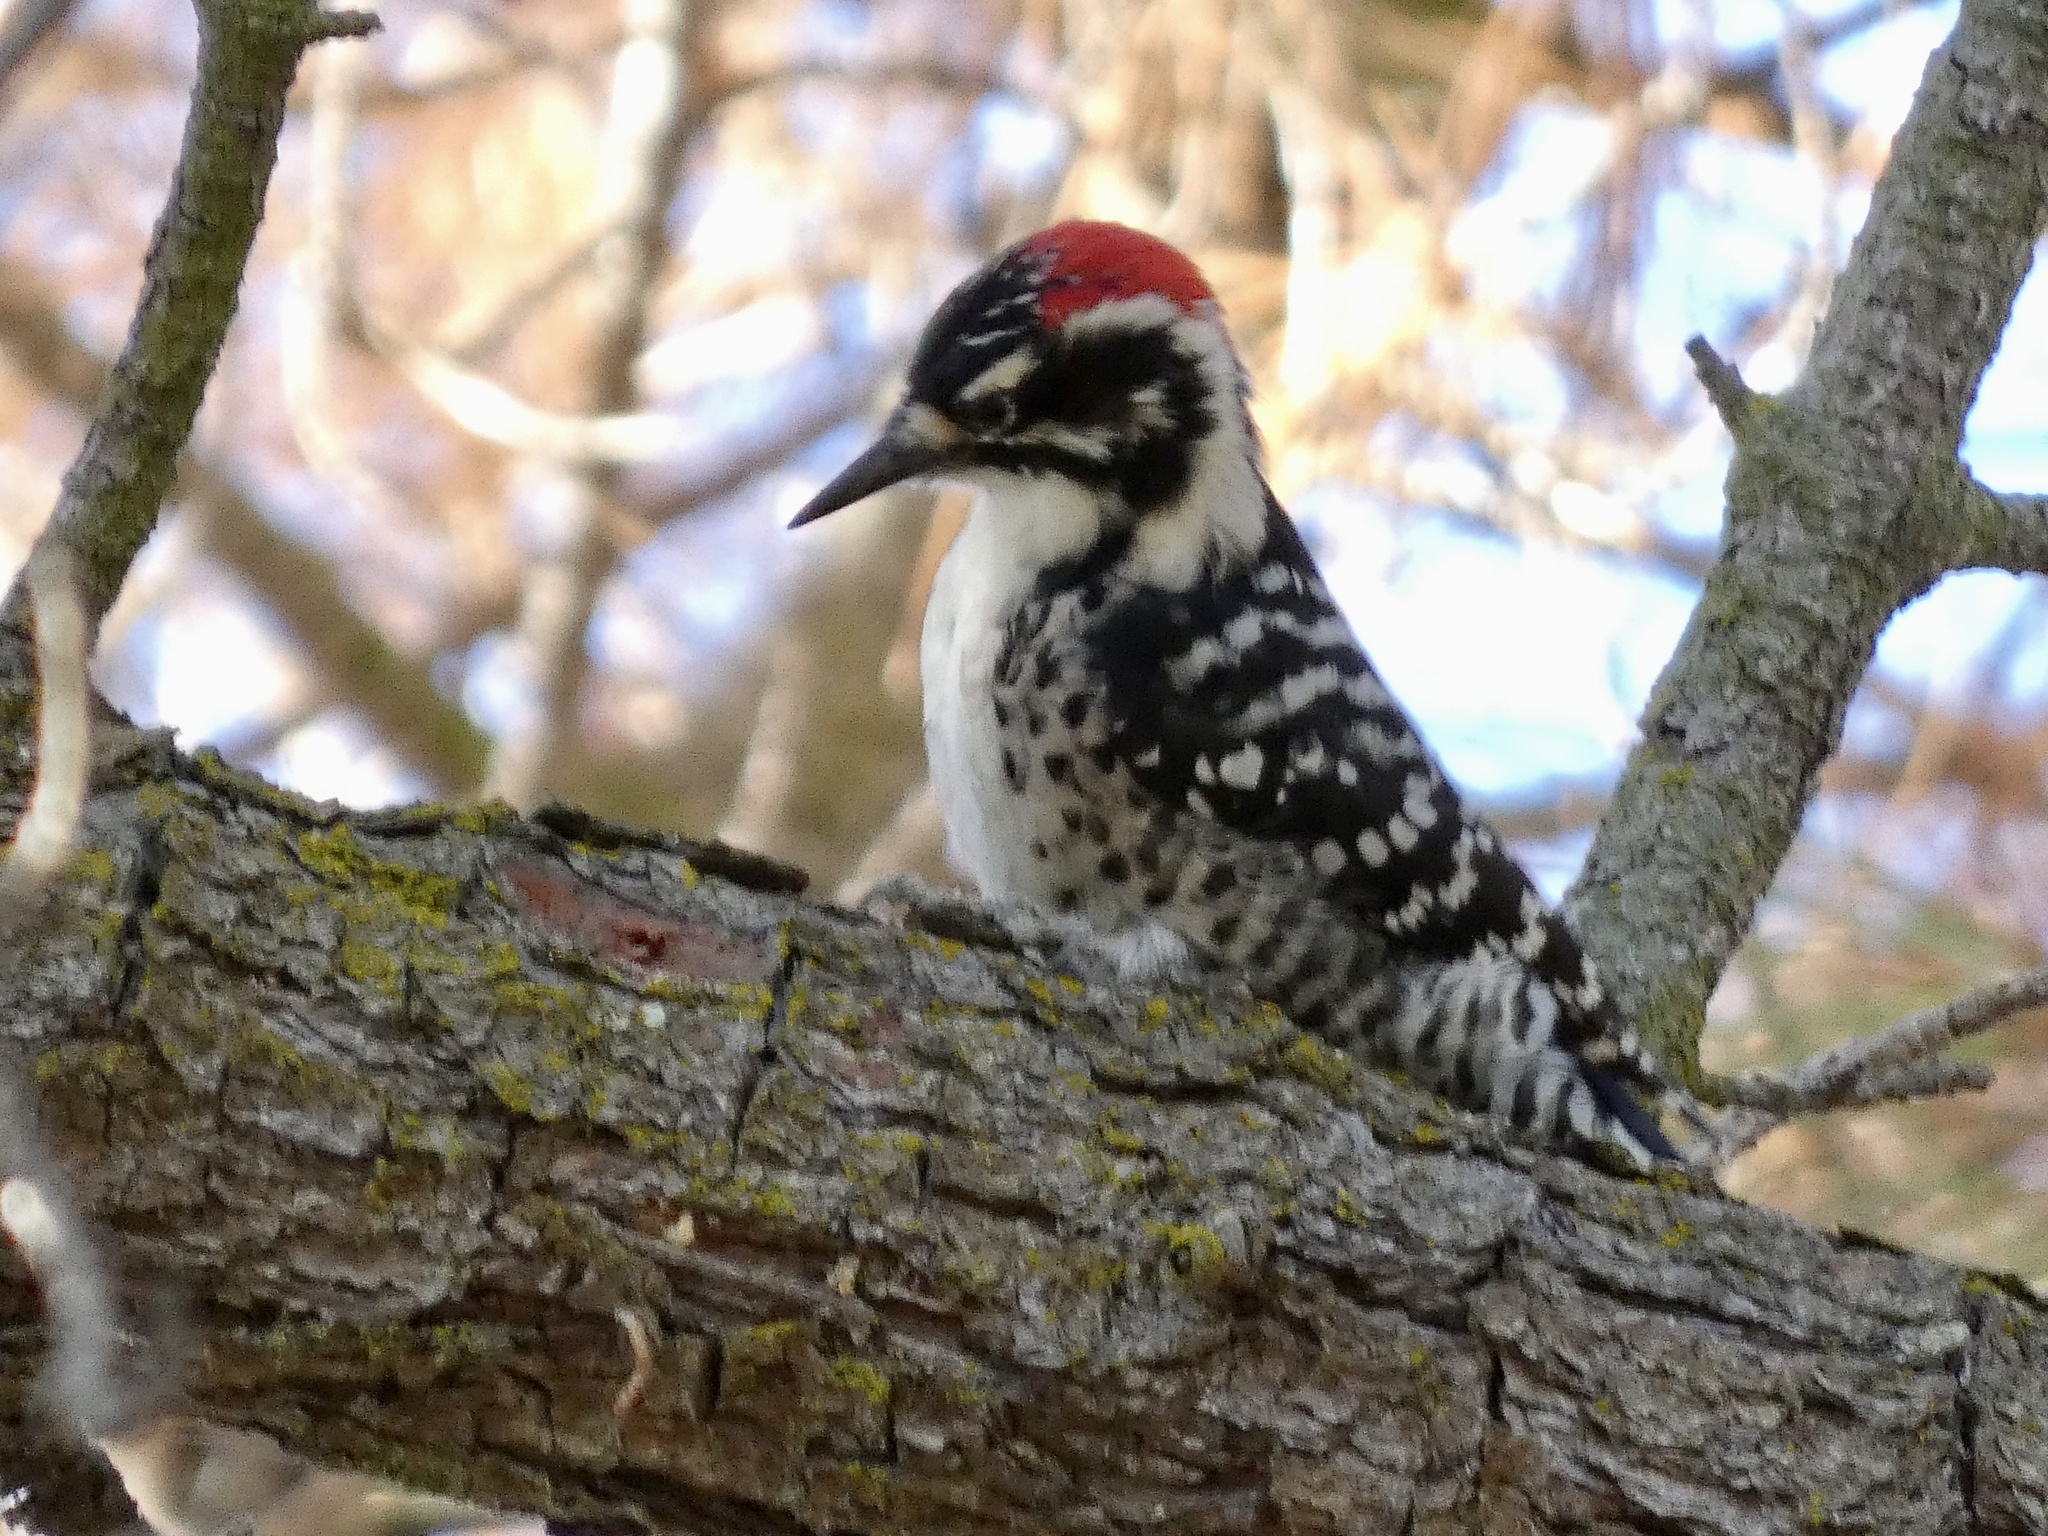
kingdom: Animalia
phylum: Chordata
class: Aves
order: Piciformes
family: Picidae
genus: Dryobates
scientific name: Dryobates nuttallii
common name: Nuttall's woodpecker
